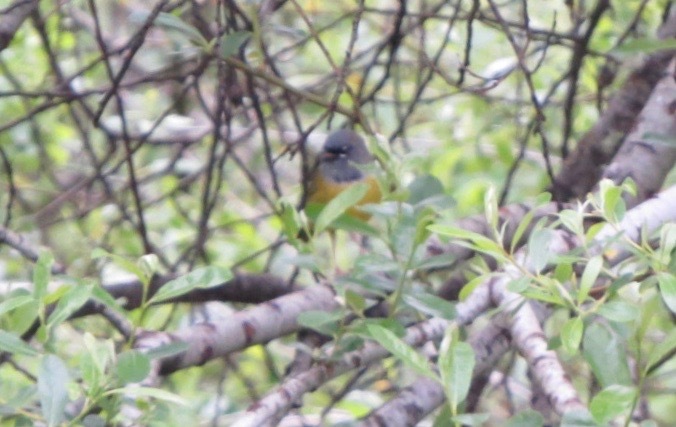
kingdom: Animalia
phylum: Chordata
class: Aves
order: Passeriformes
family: Parulidae
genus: Geothlypis
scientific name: Geothlypis tolmiei
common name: Macgillivray's warbler
